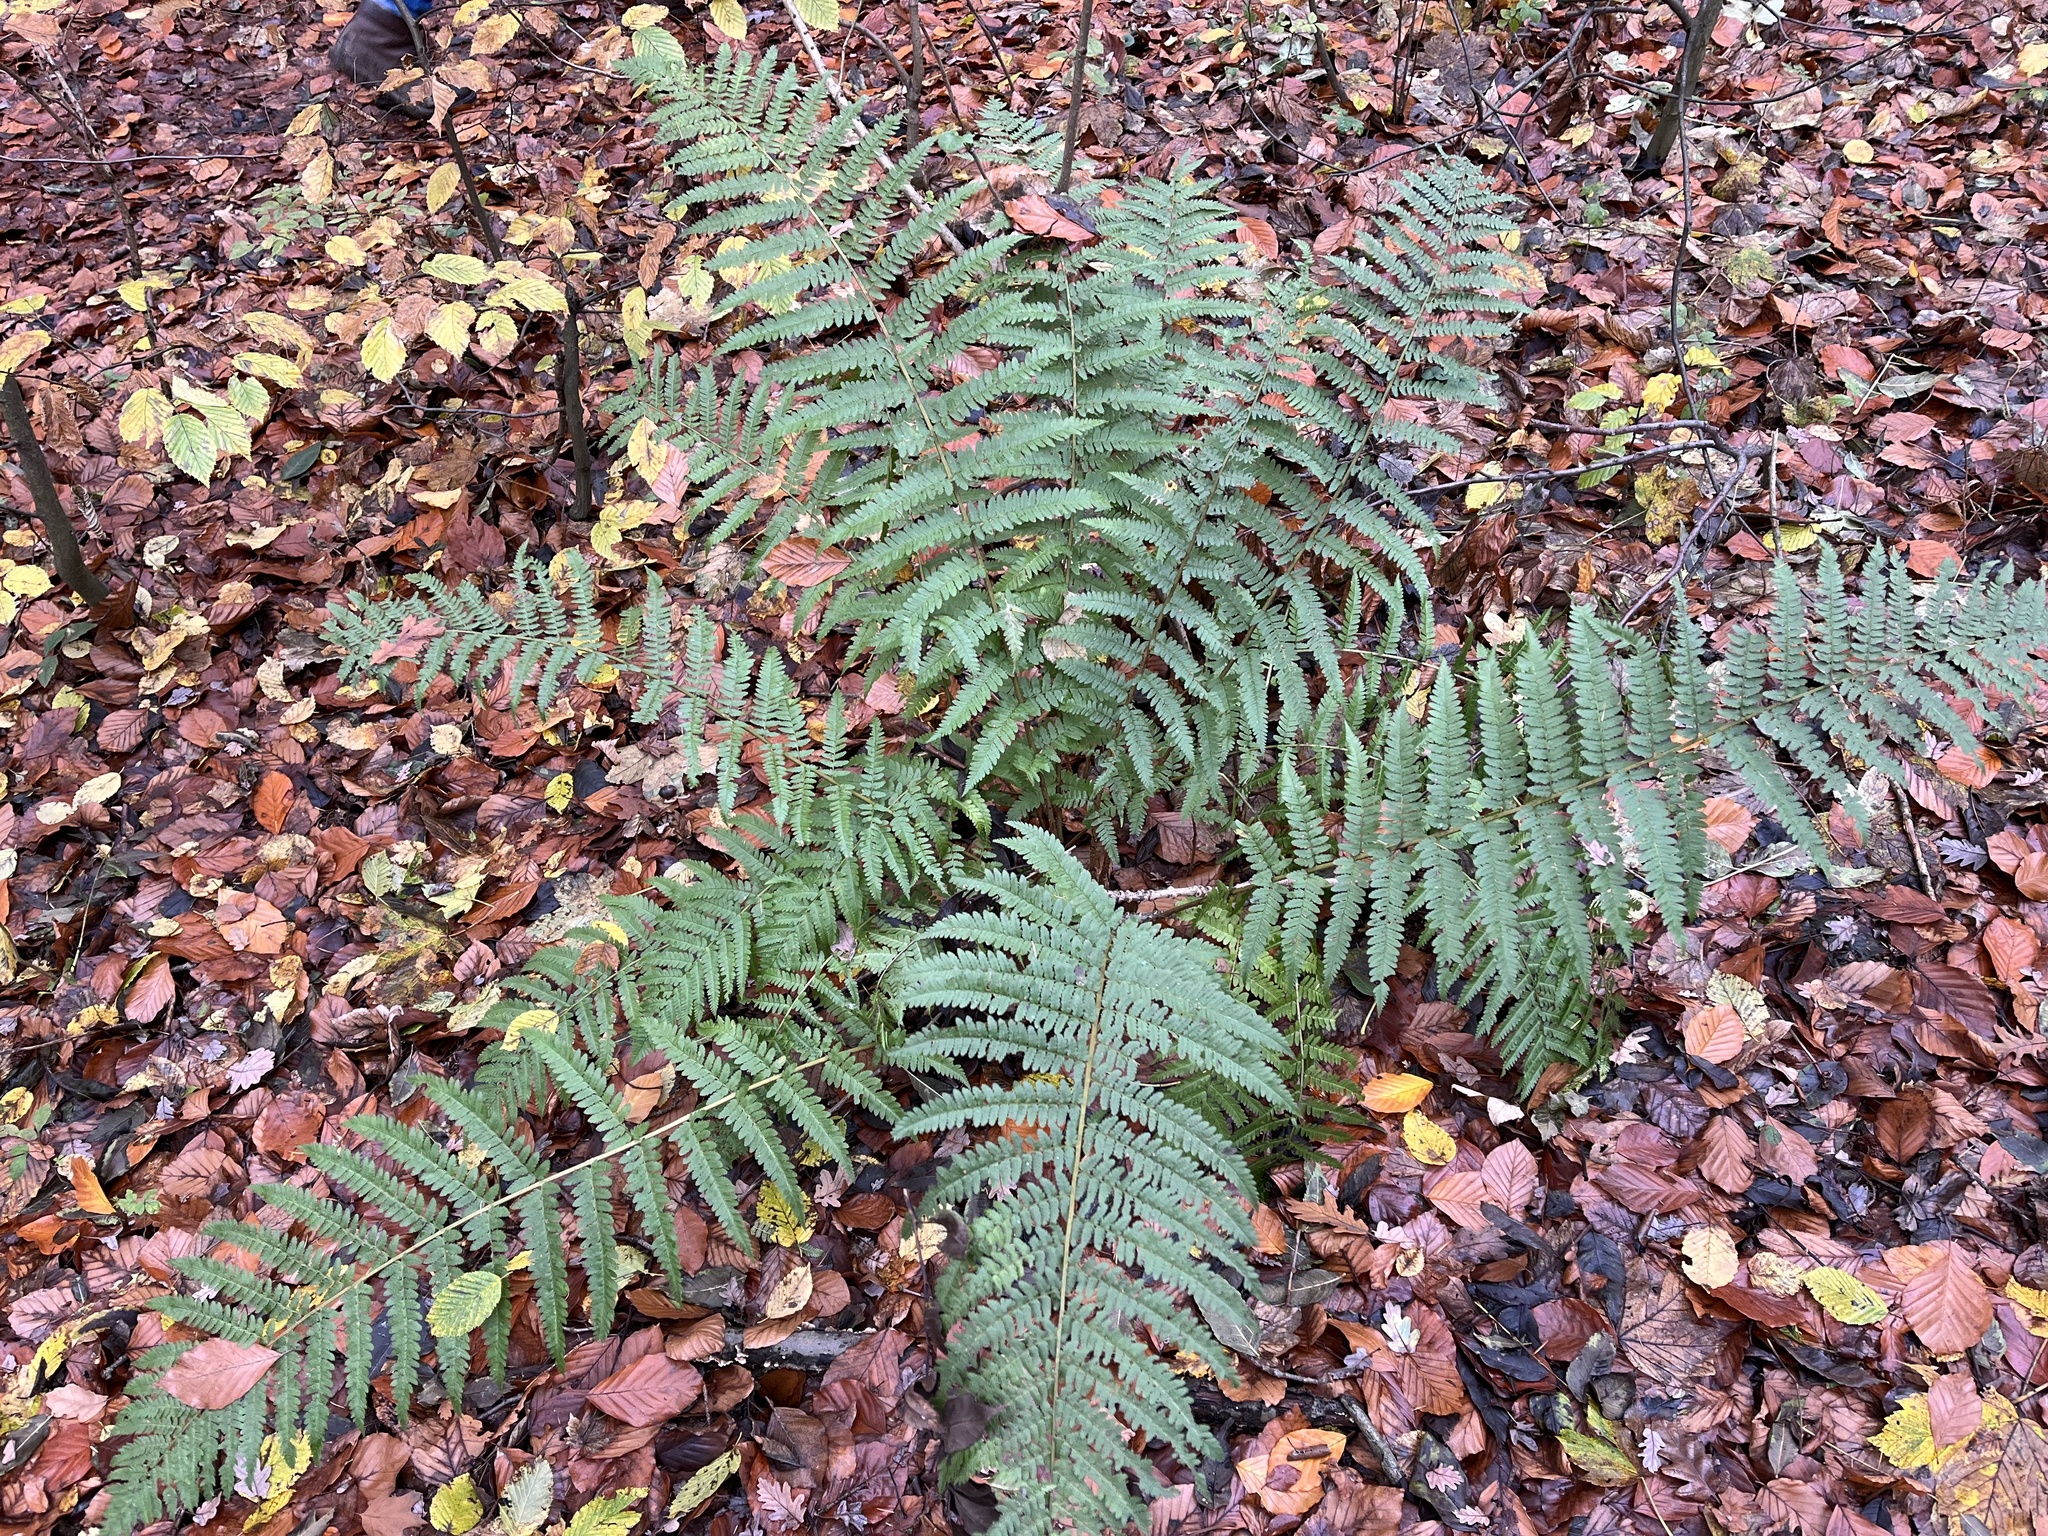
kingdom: Plantae
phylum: Tracheophyta
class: Polypodiopsida
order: Polypodiales
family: Dryopteridaceae
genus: Dryopteris
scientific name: Dryopteris filix-mas
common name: Male fern
